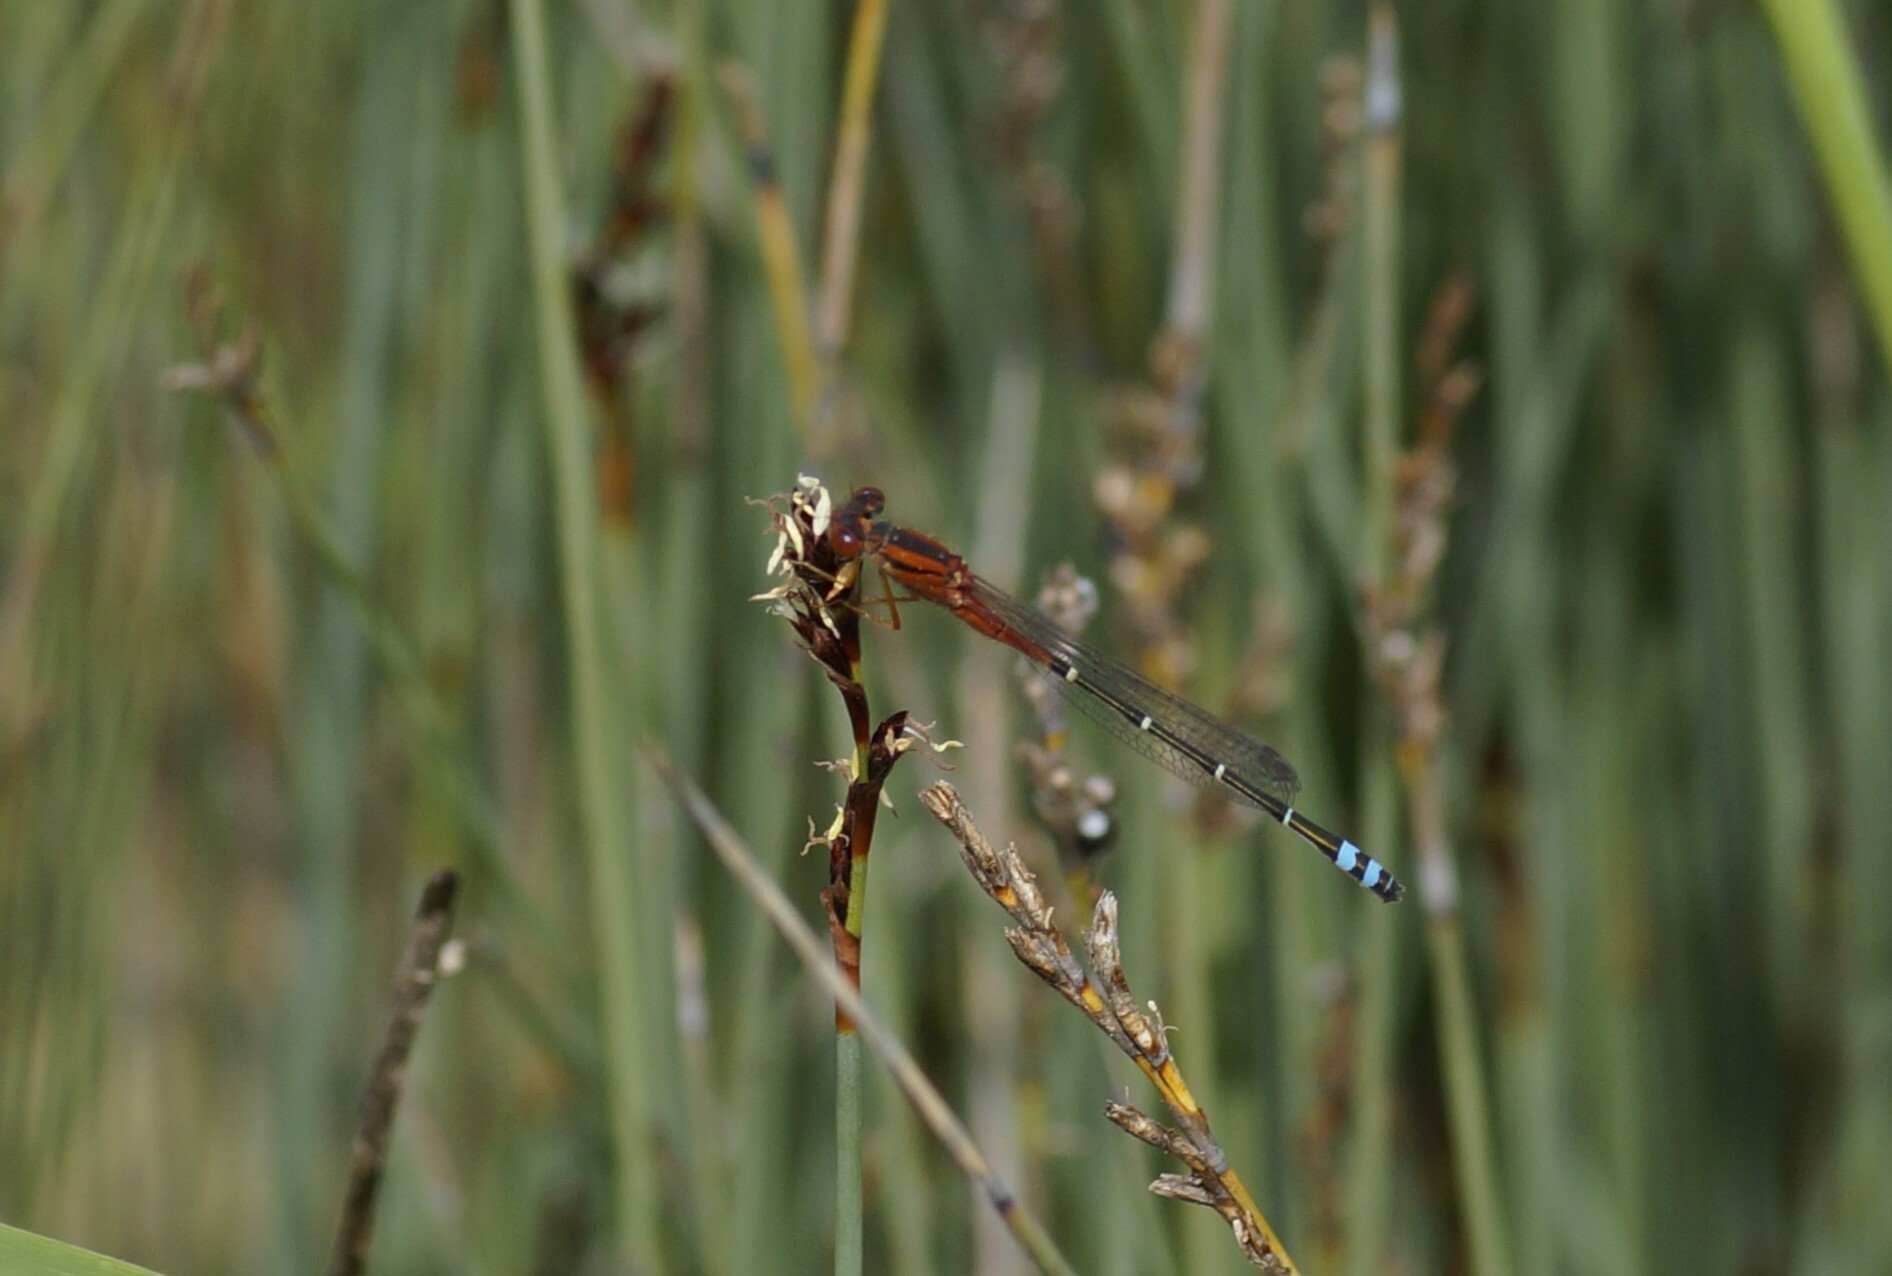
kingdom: Animalia
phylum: Arthropoda
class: Insecta
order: Odonata
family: Coenagrionidae
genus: Xanthagrion
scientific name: Xanthagrion erythroneurum
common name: Red and blue damsel
